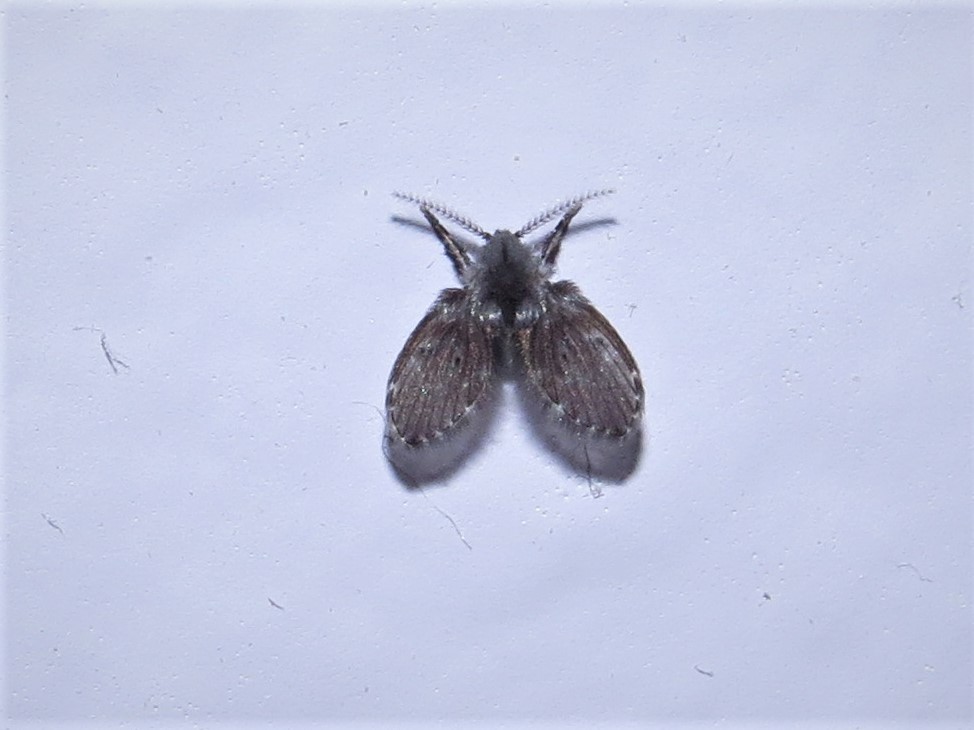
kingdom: Animalia
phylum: Arthropoda
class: Insecta
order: Diptera
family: Psychodidae
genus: Clogmia
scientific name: Clogmia albipunctatus
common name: White-spotted moth fly
